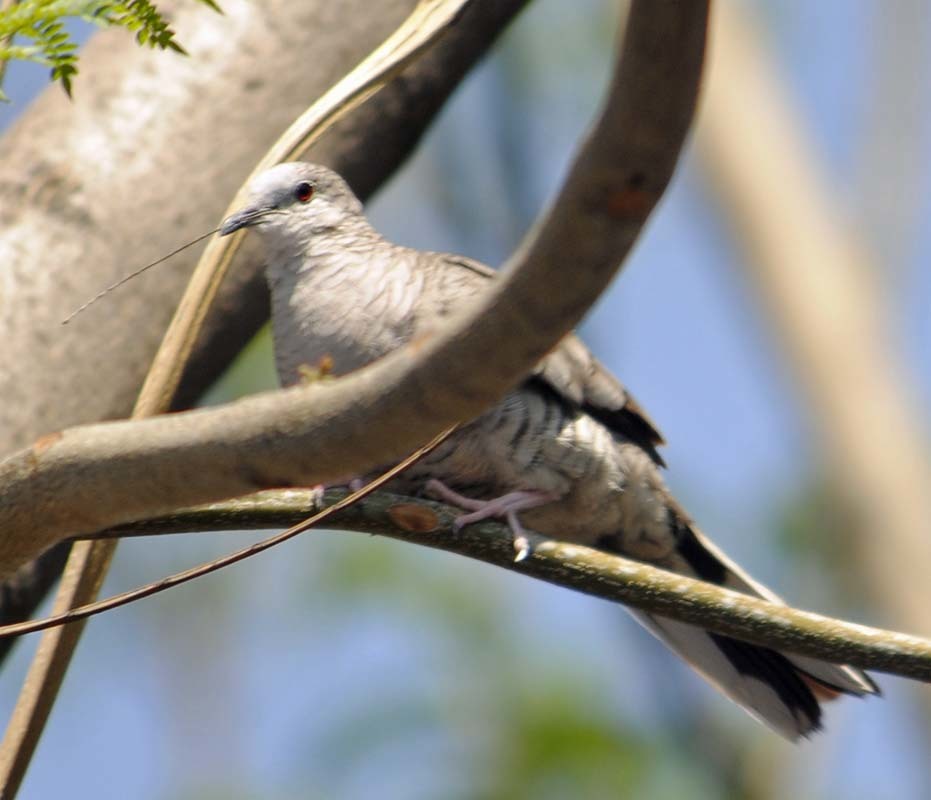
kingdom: Animalia
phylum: Chordata
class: Aves
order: Columbiformes
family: Columbidae
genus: Columbina
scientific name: Columbina inca
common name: Inca dove
